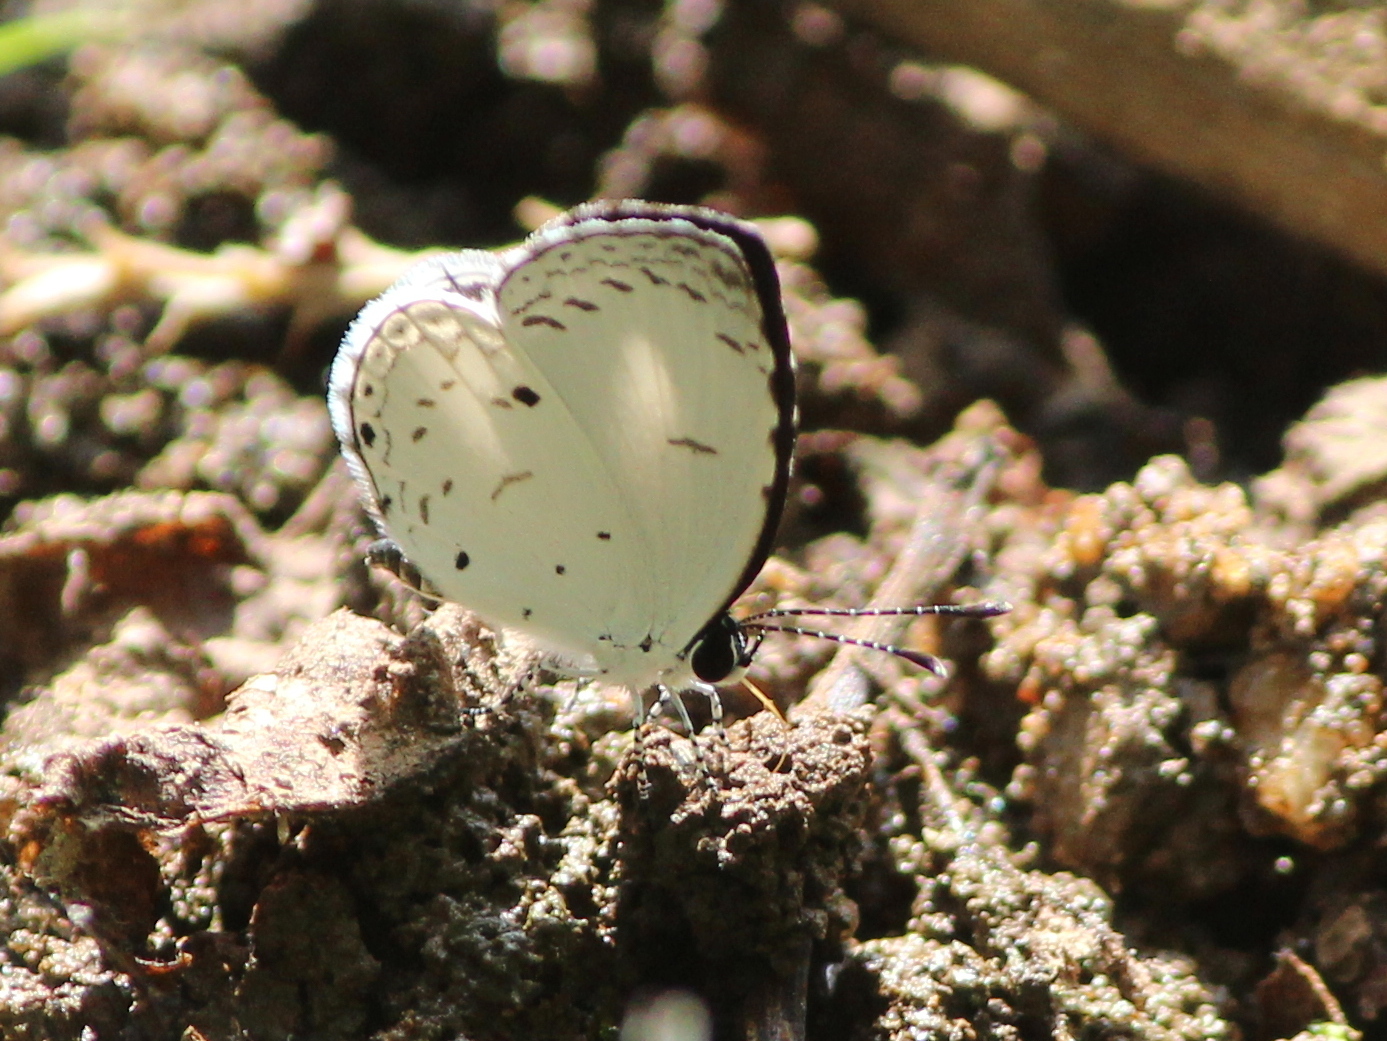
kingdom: Animalia
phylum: Arthropoda
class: Insecta
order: Lepidoptera
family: Lycaenidae
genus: Neopithecops
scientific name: Neopithecops zalmora
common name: Quaker
